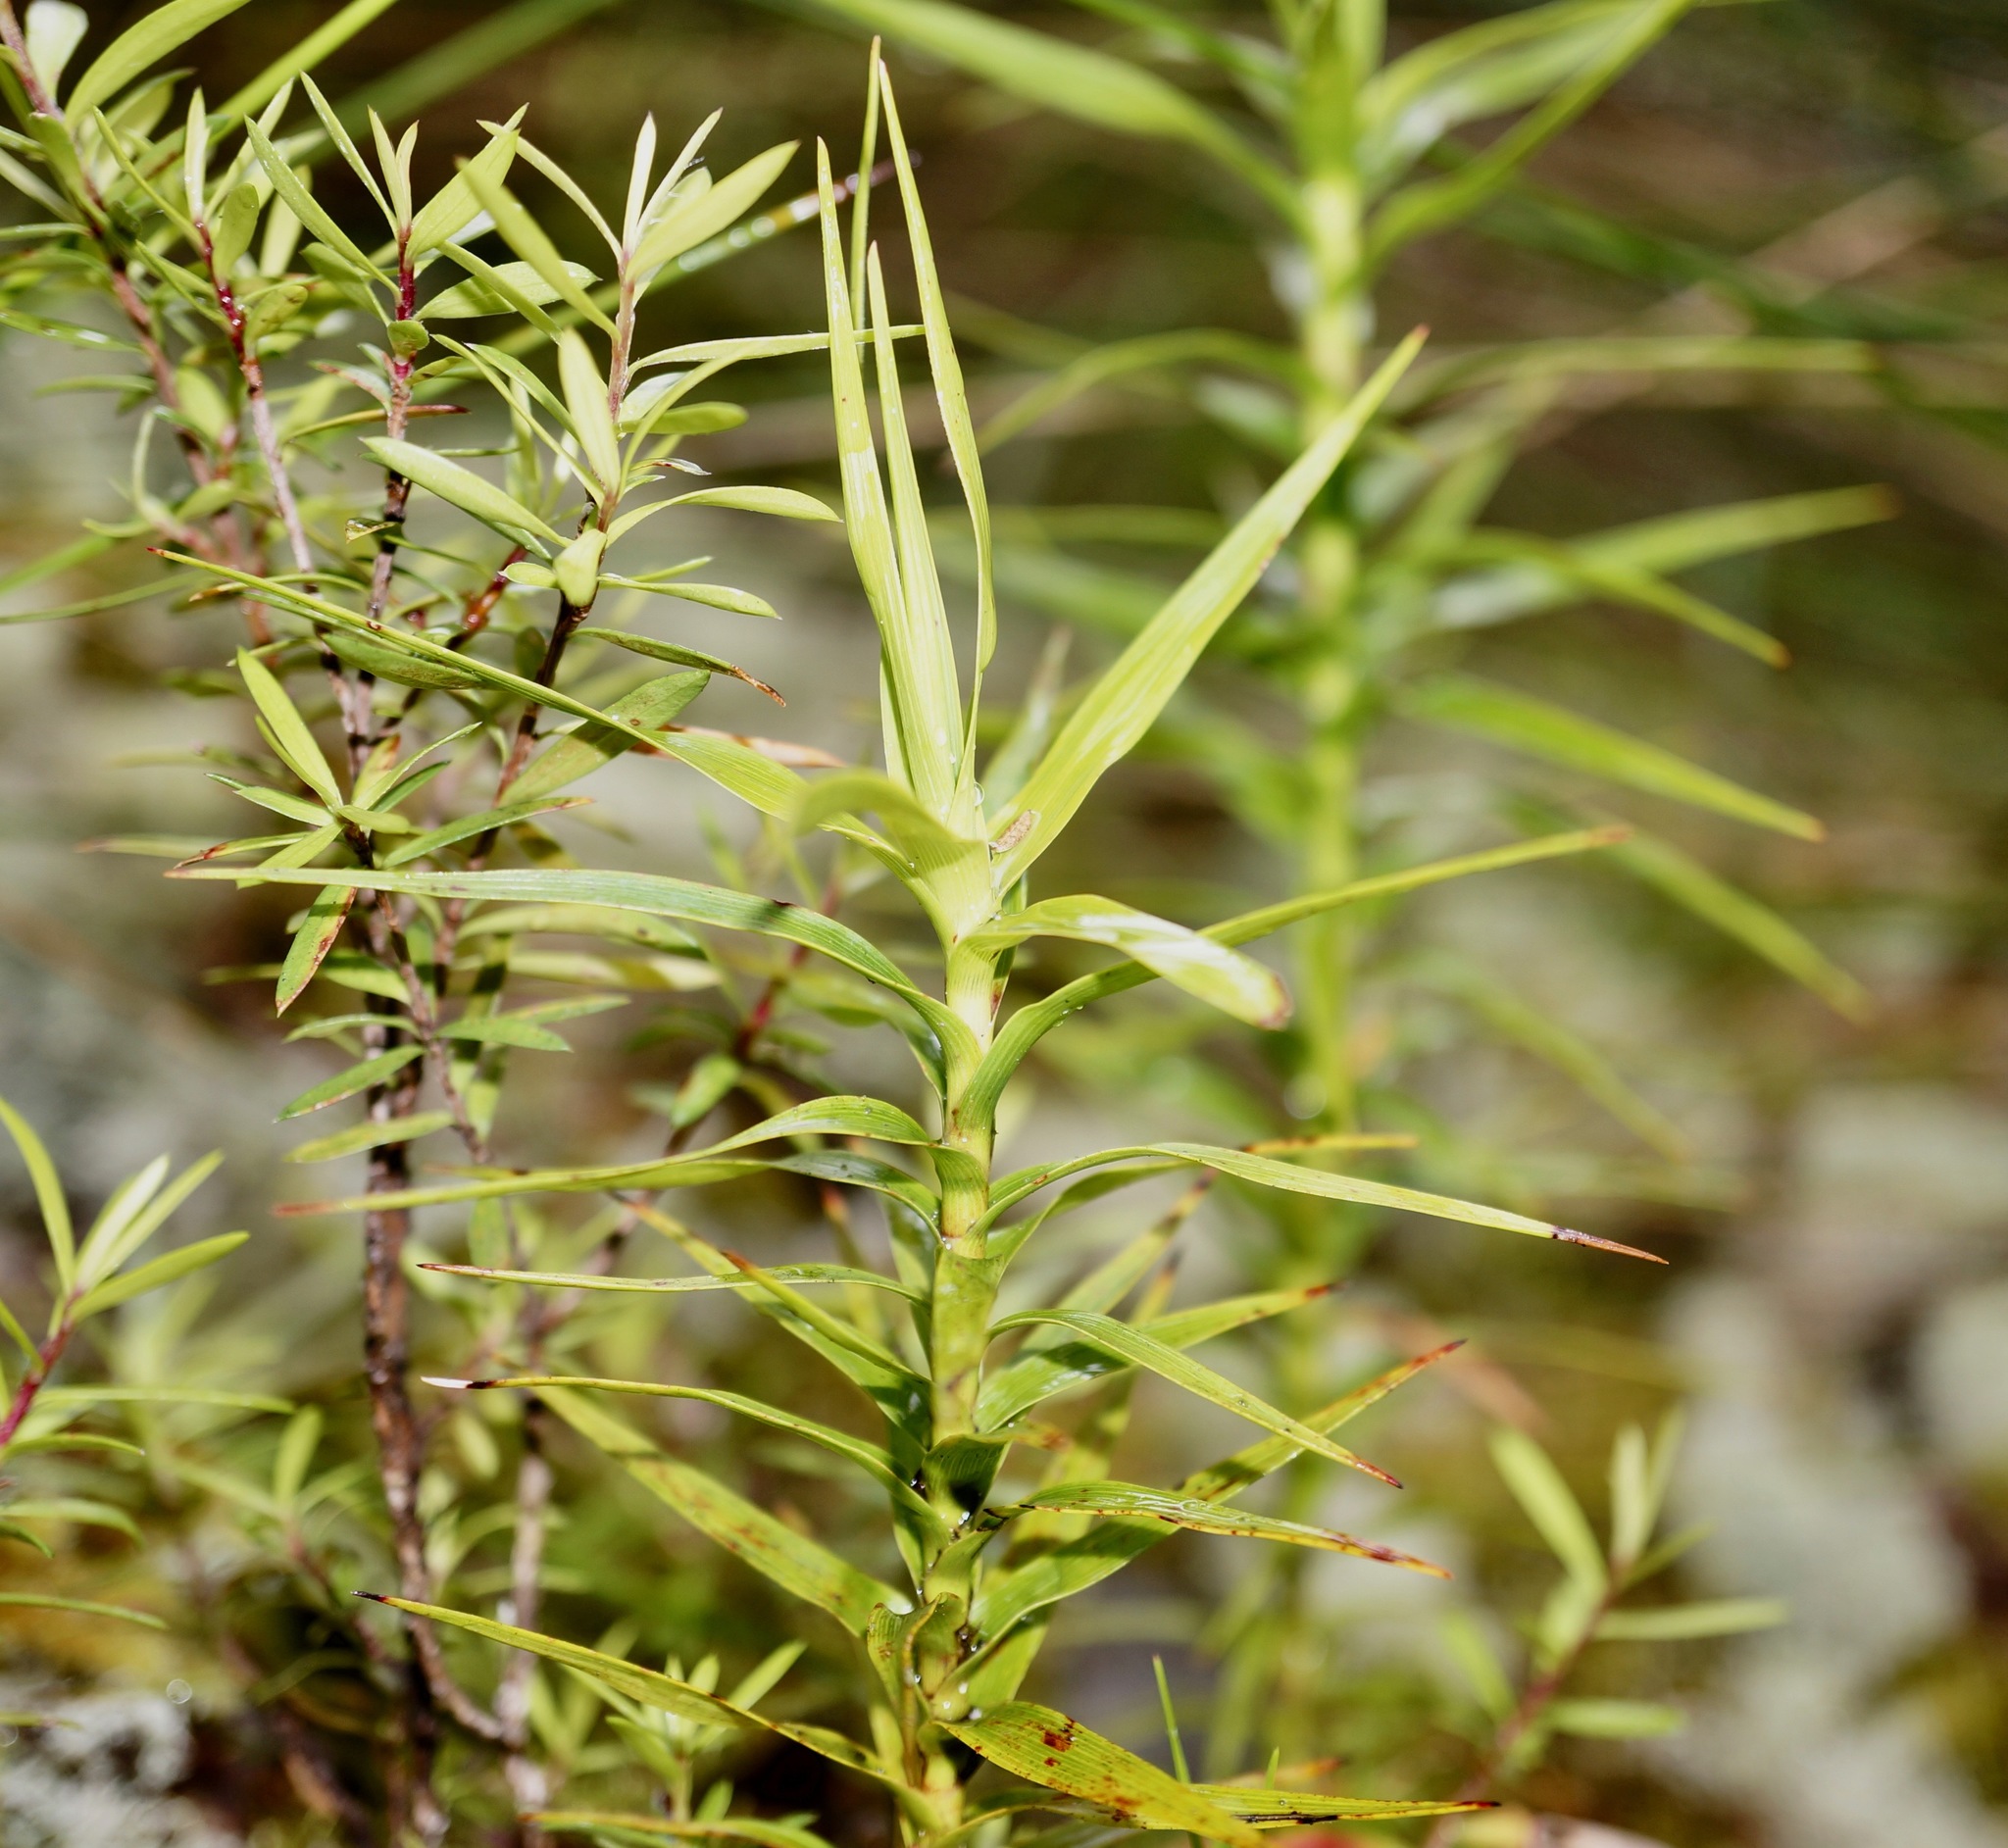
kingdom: Plantae
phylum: Tracheophyta
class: Magnoliopsida
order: Ericales
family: Ericaceae
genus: Dracophyllum
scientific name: Dracophyllum trimorphum
